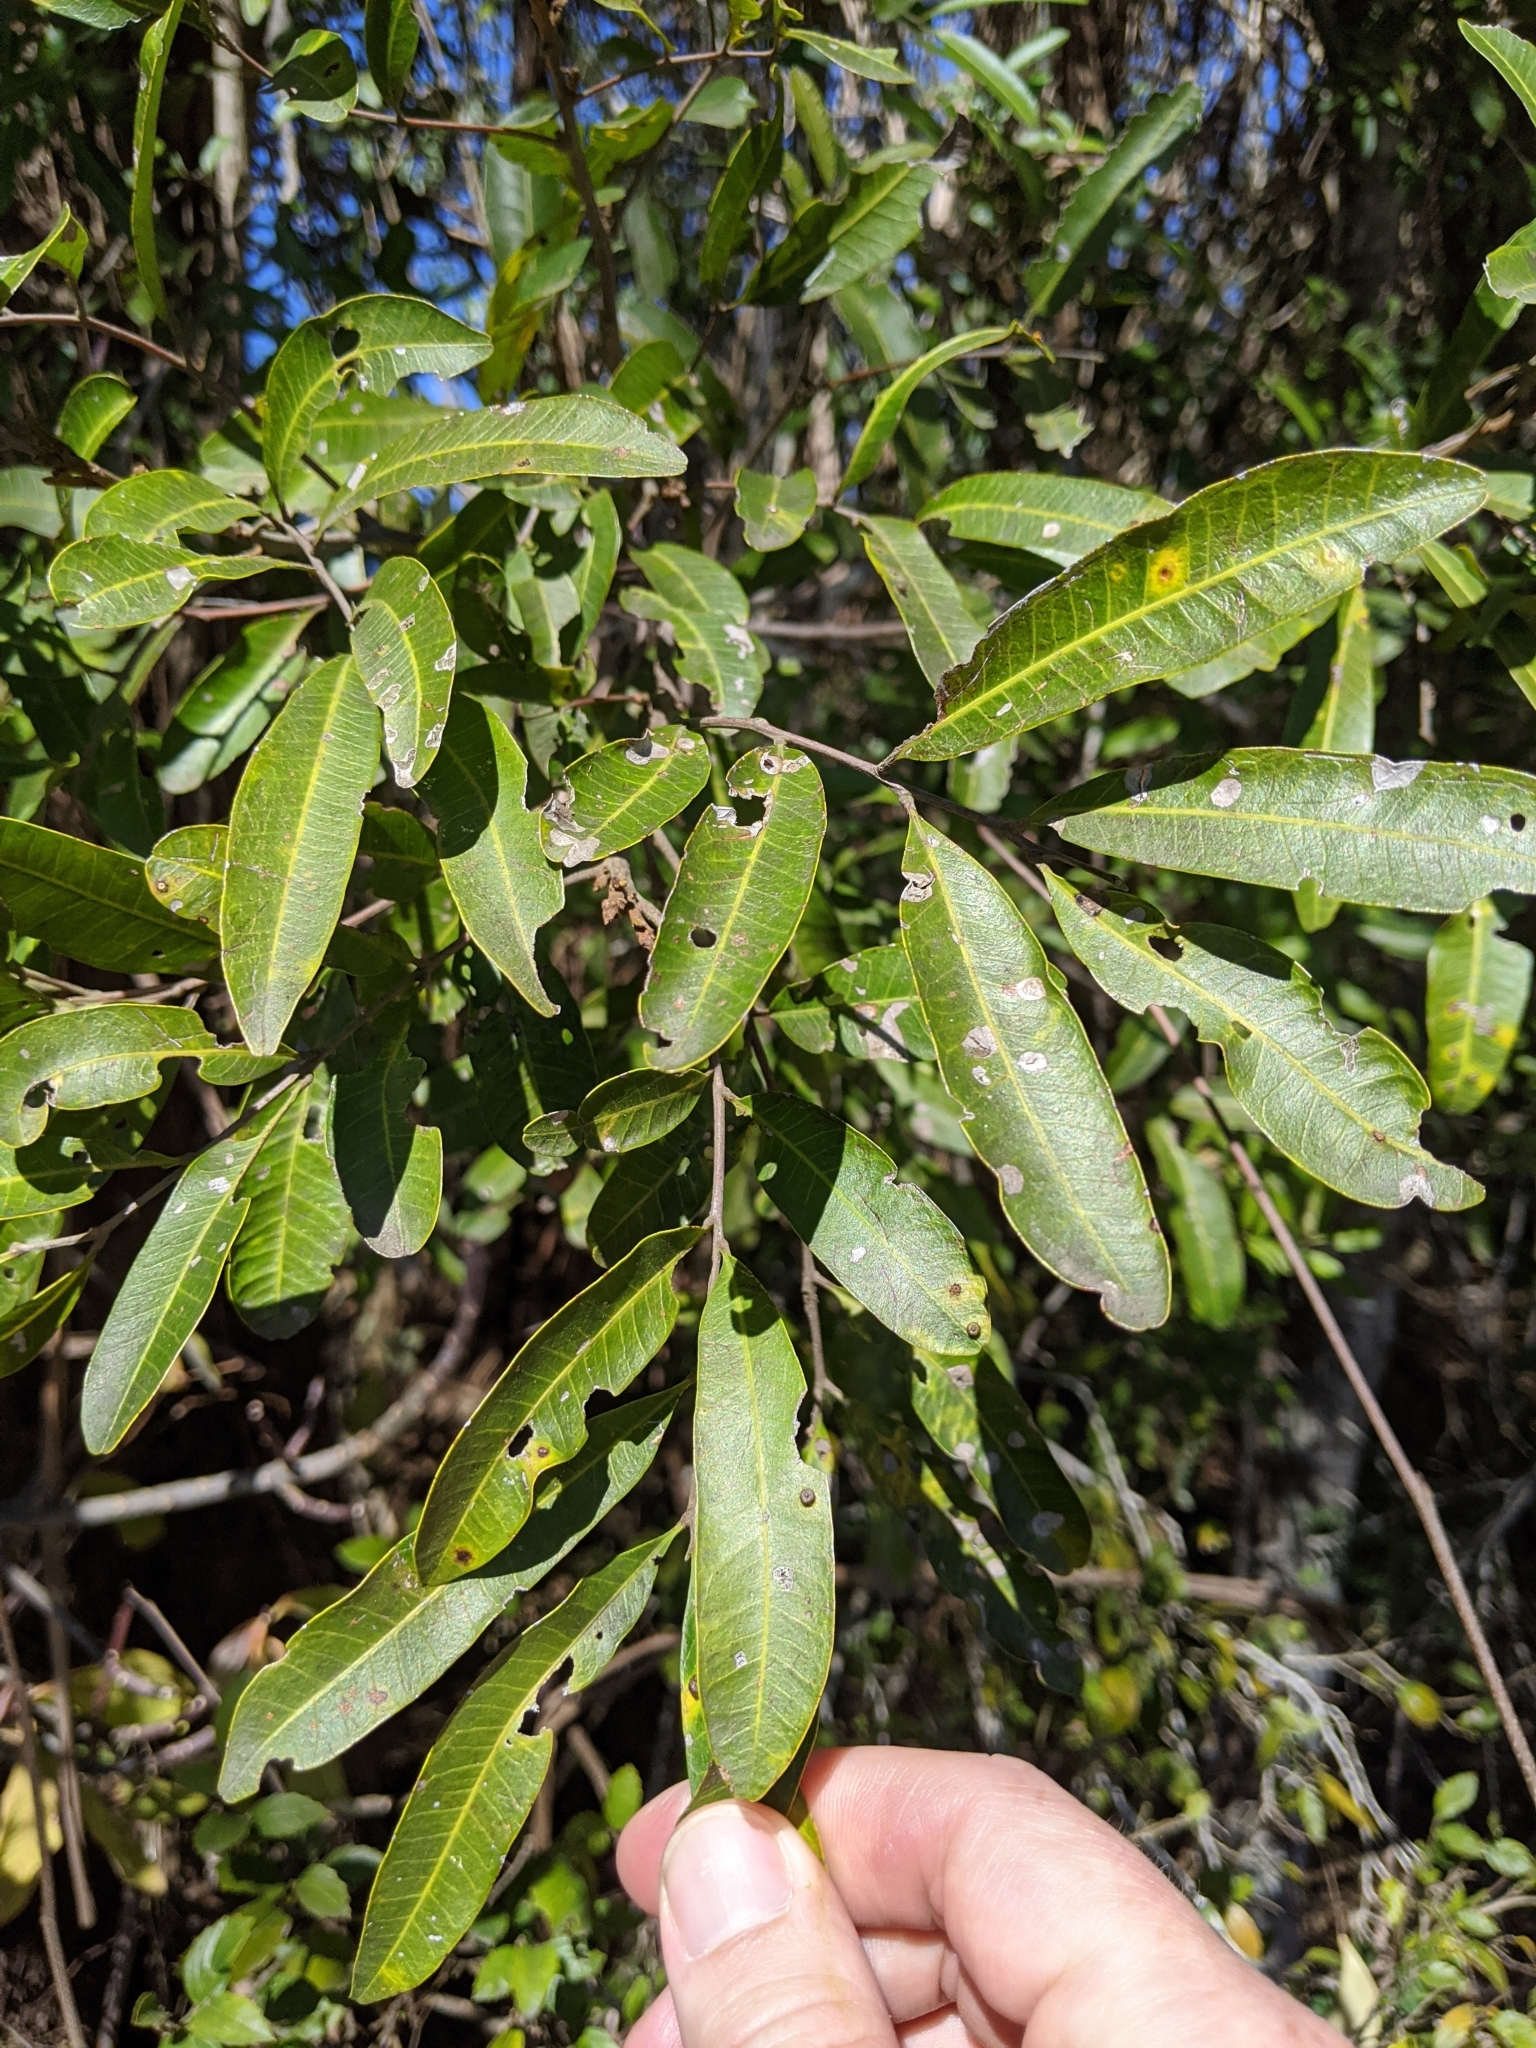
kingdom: Plantae
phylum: Tracheophyta
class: Magnoliopsida
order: Sapindales
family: Sapindaceae
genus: Cupaniopsis
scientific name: Cupaniopsis parvifolia
